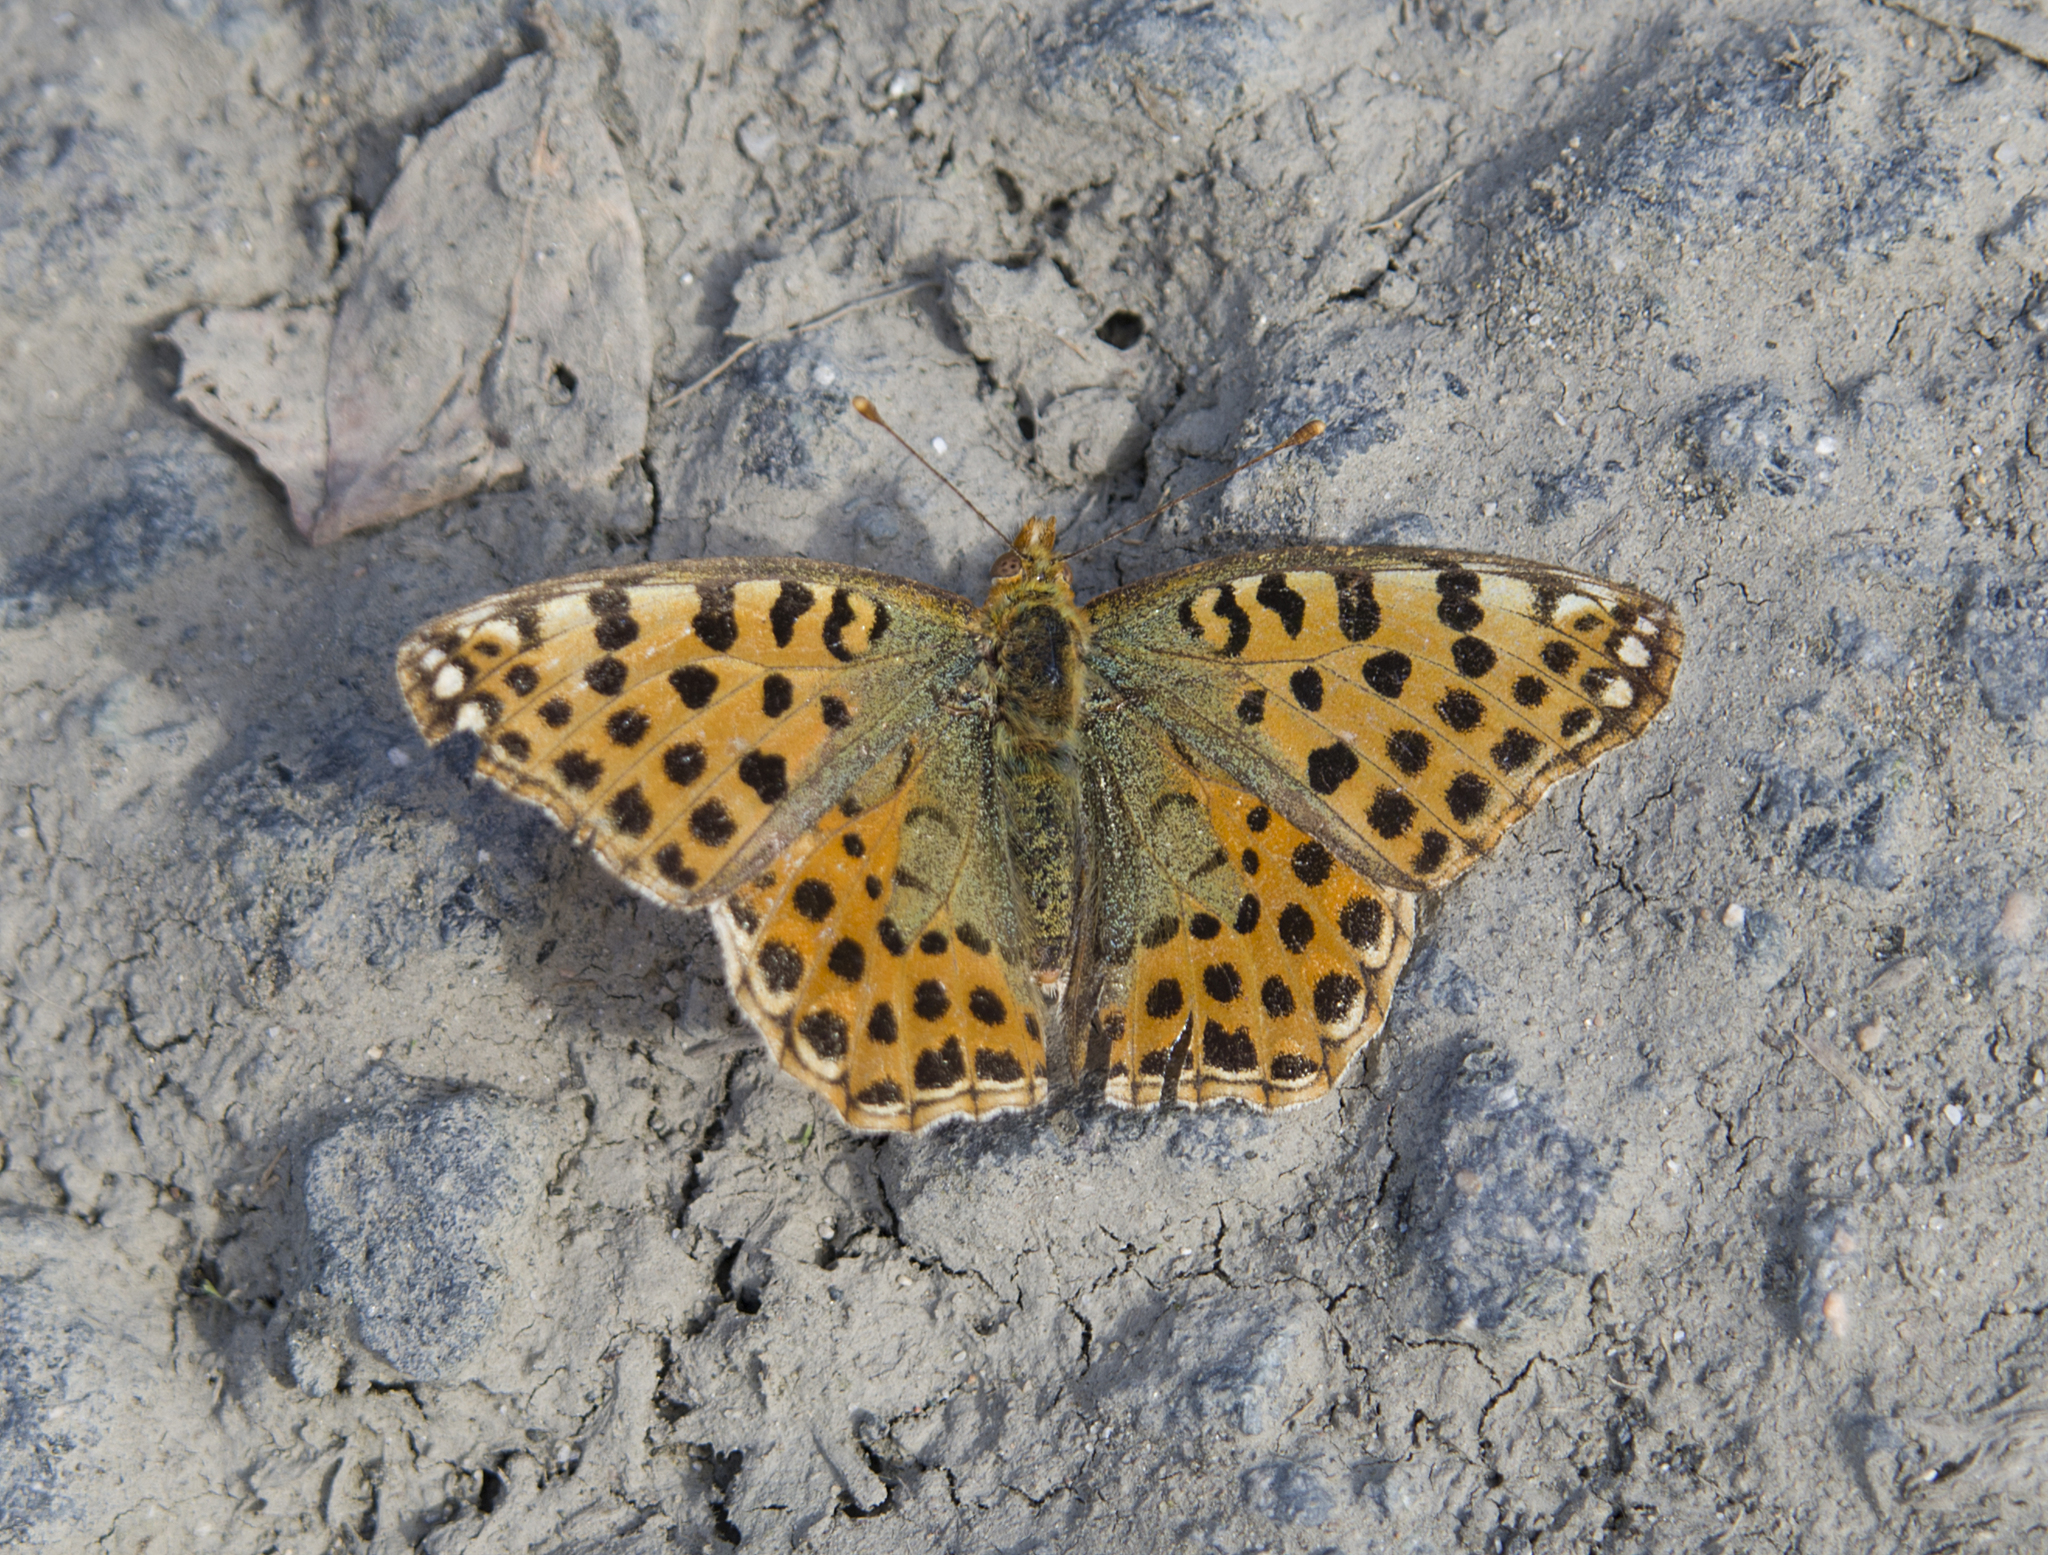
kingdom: Animalia
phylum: Arthropoda
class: Insecta
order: Lepidoptera
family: Nymphalidae
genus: Issoria
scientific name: Issoria lathonia
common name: Queen of spain fritillary
